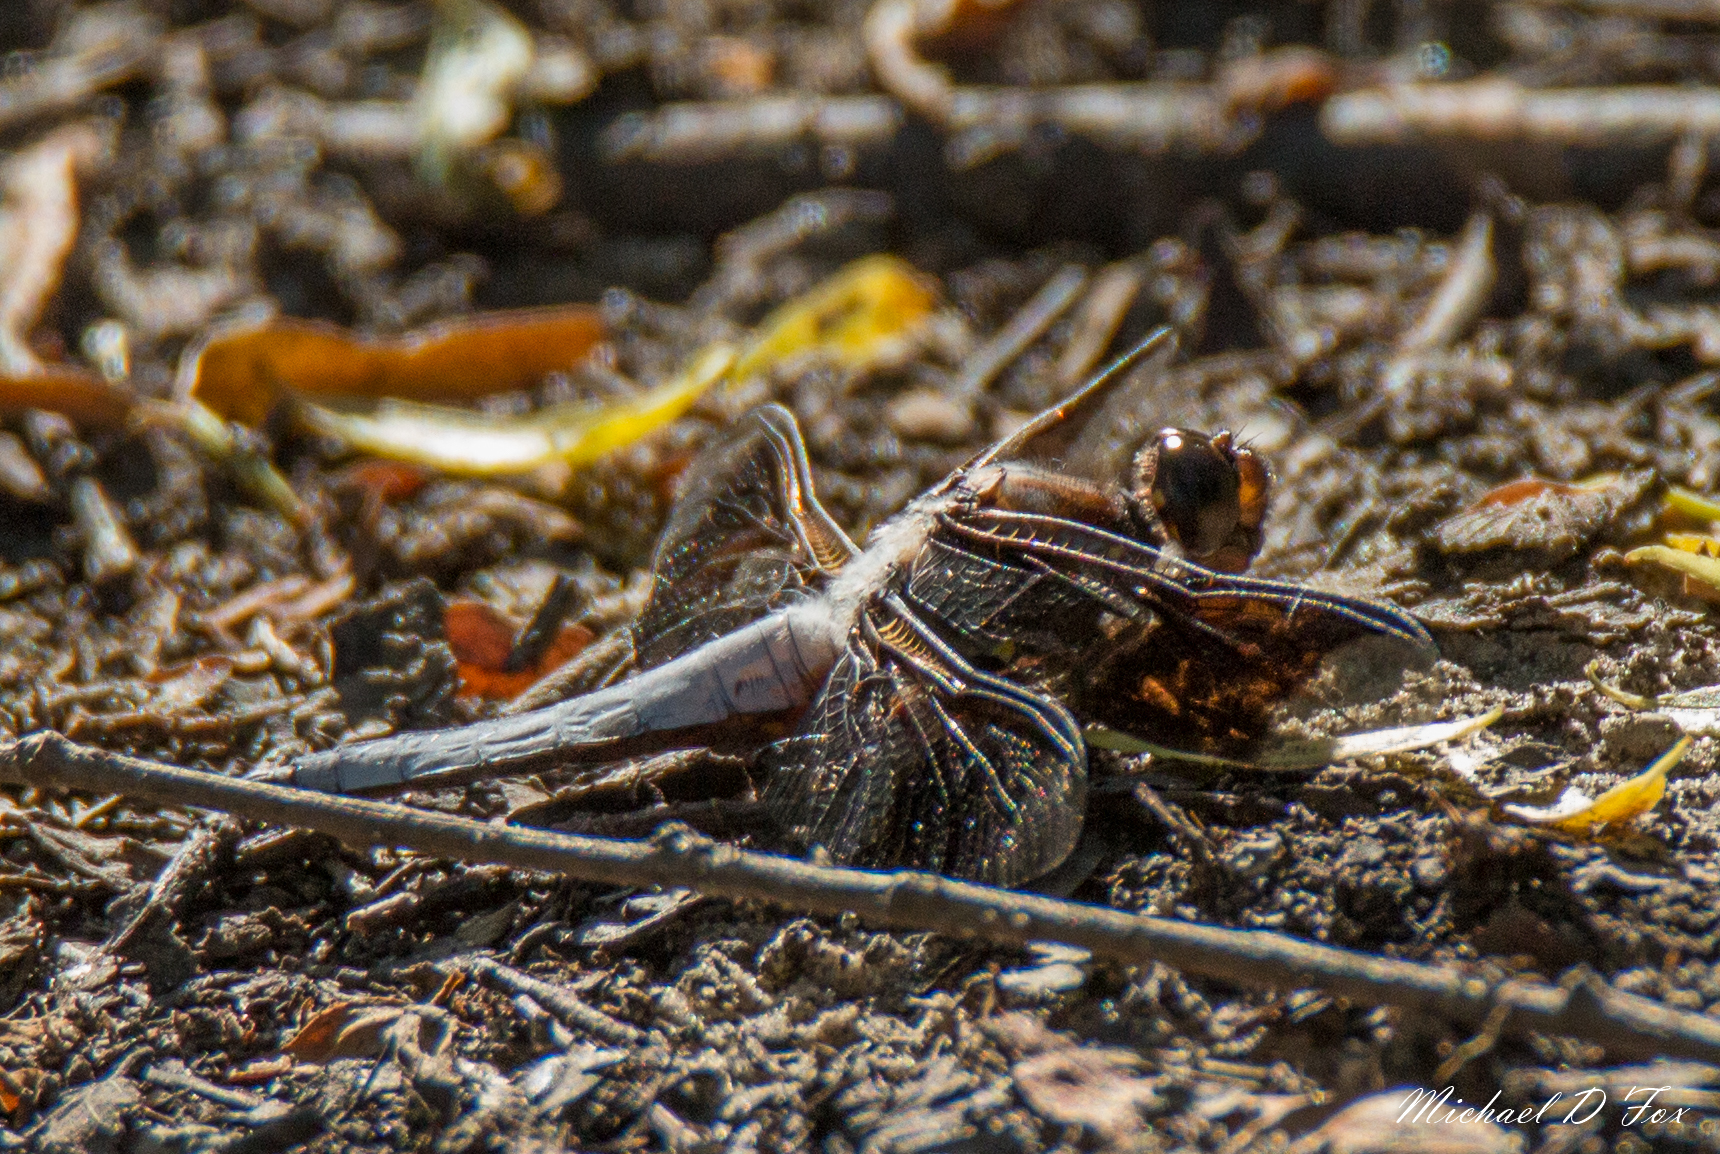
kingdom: Animalia
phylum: Arthropoda
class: Insecta
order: Odonata
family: Libellulidae
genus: Plathemis
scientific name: Plathemis lydia
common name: Common whitetail
